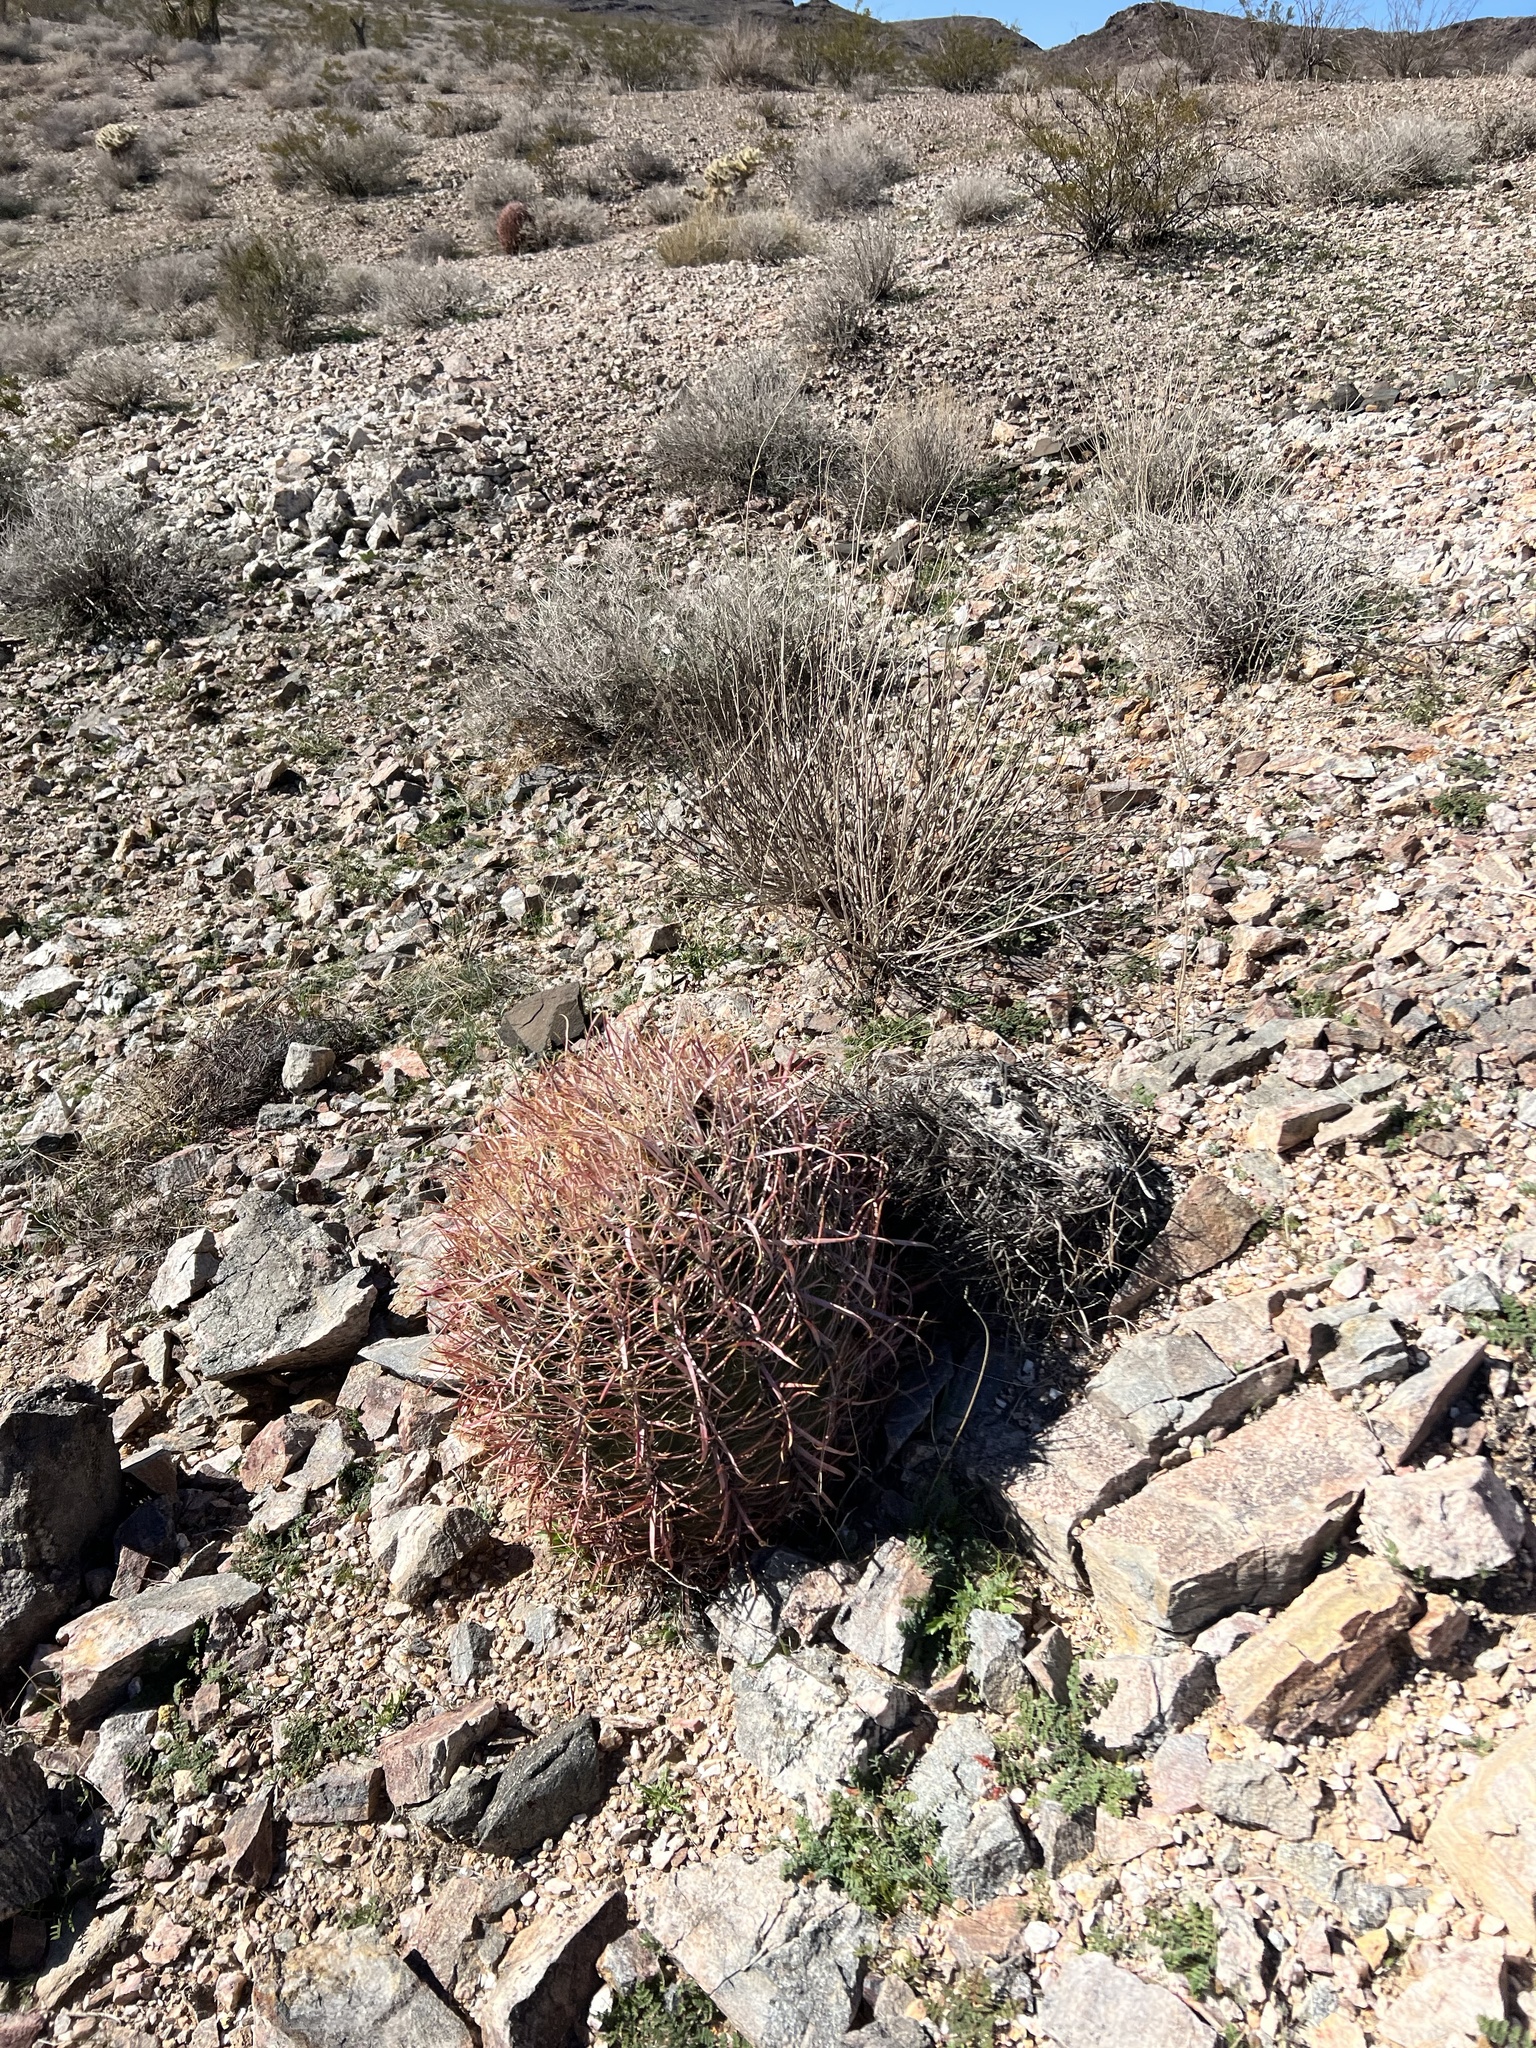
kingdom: Plantae
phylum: Tracheophyta
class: Magnoliopsida
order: Caryophyllales
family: Cactaceae
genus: Ferocactus
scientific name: Ferocactus cylindraceus
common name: California barrel cactus
